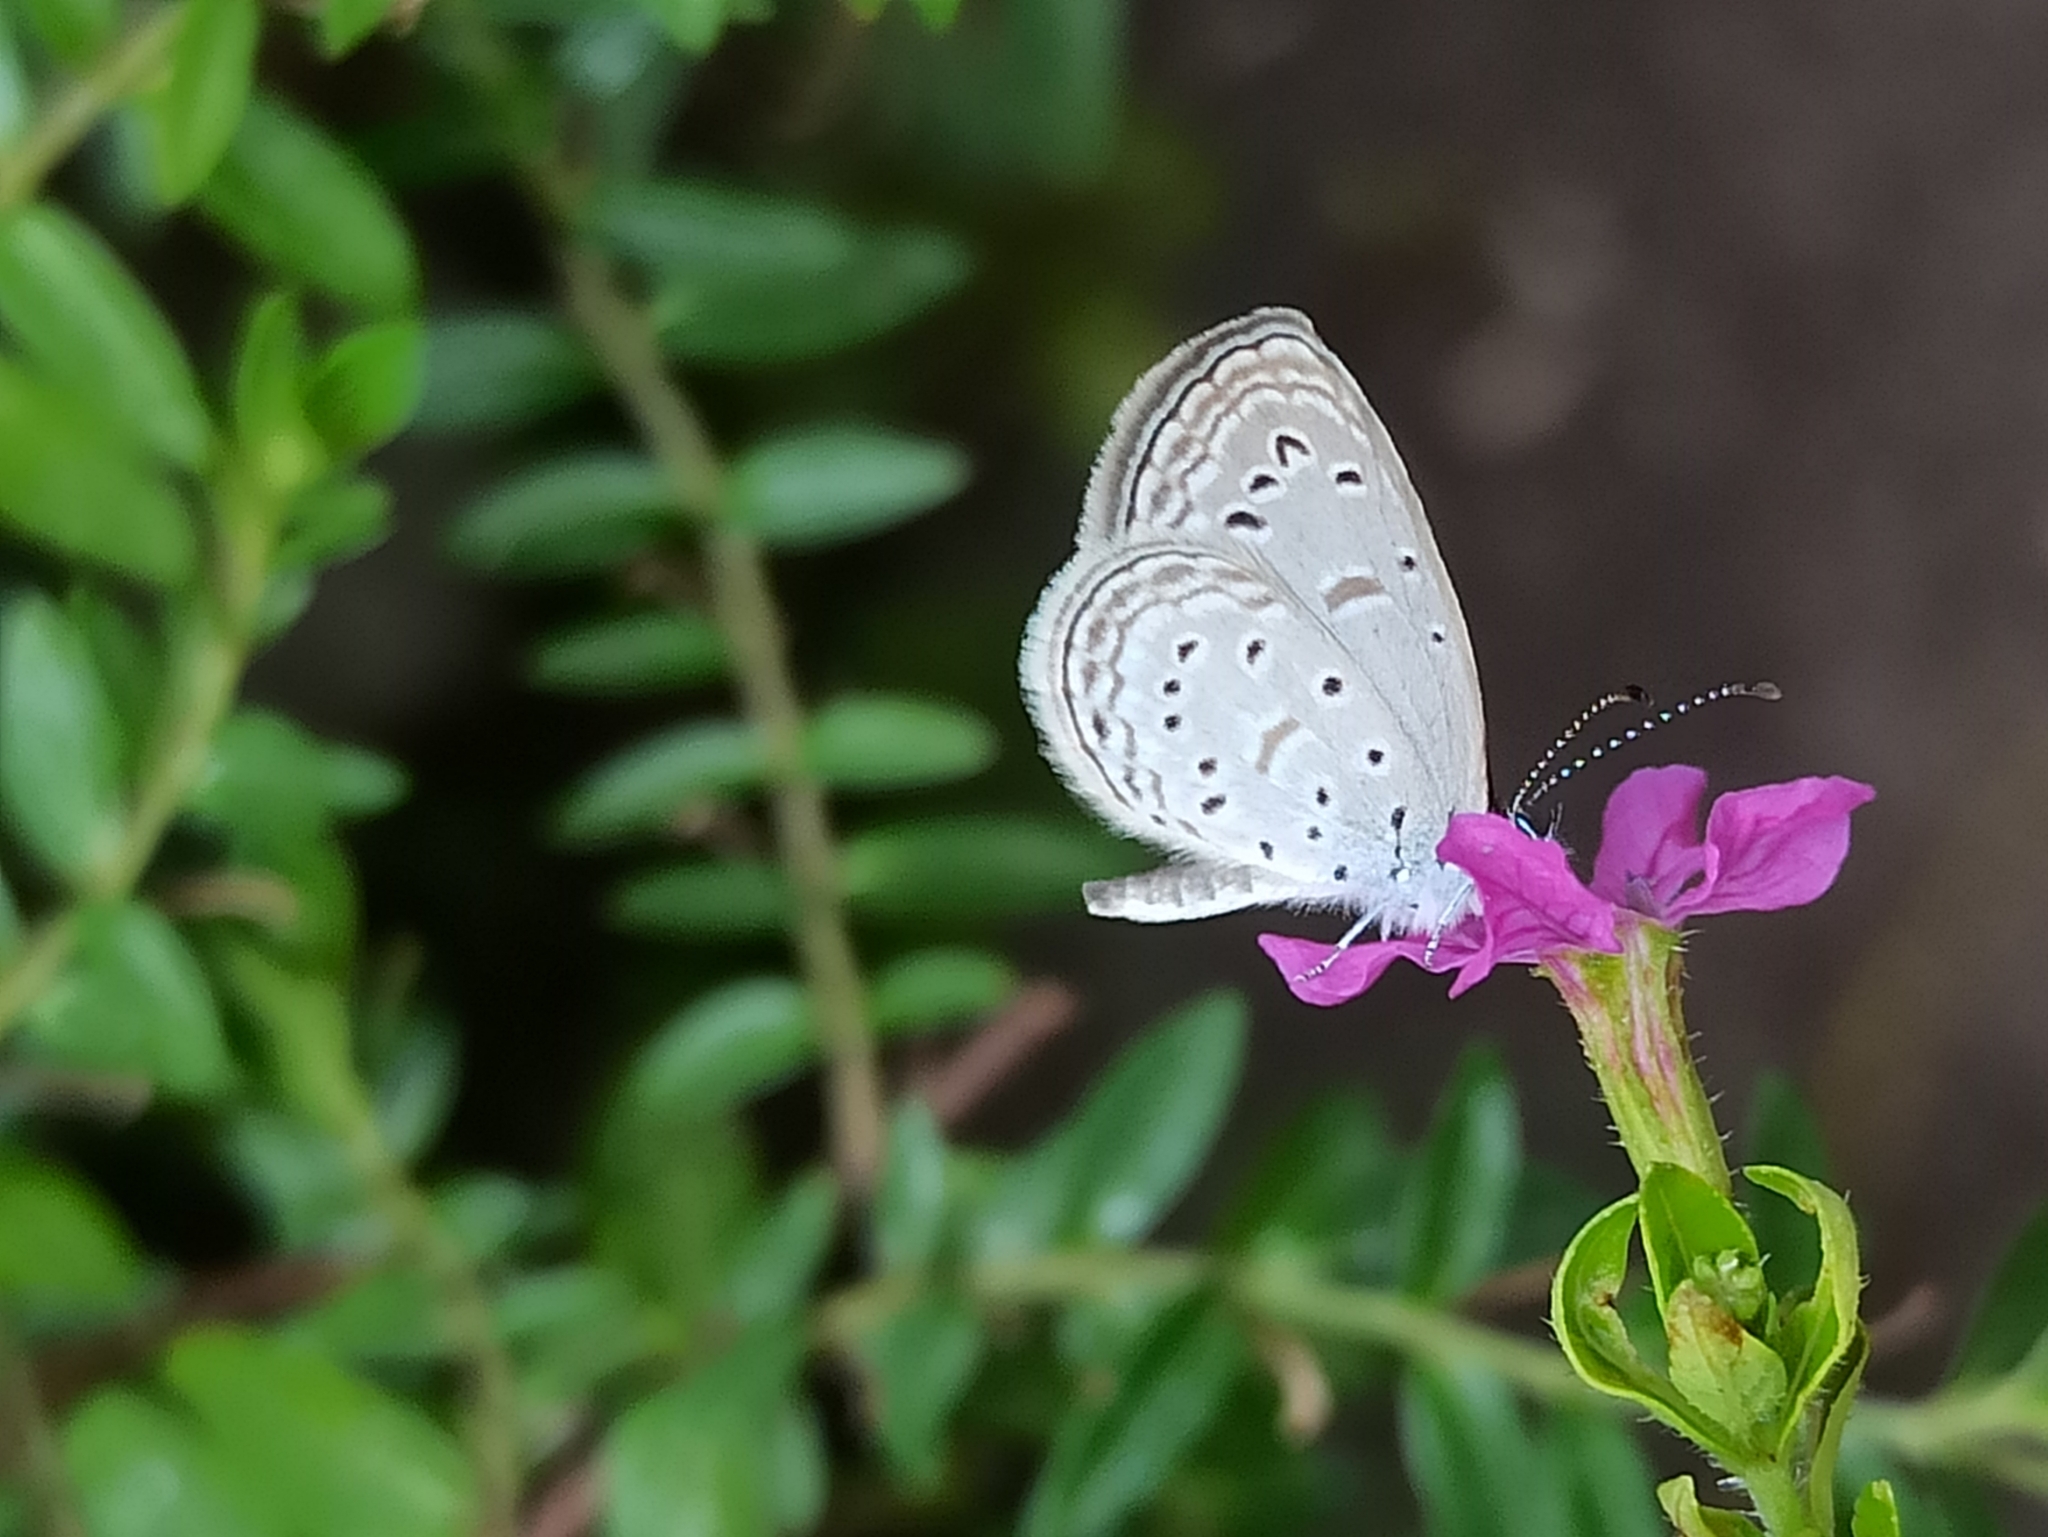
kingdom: Animalia
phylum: Arthropoda
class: Insecta
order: Lepidoptera
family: Lycaenidae
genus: Zizula
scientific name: Zizula hylax
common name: Gaika blue
